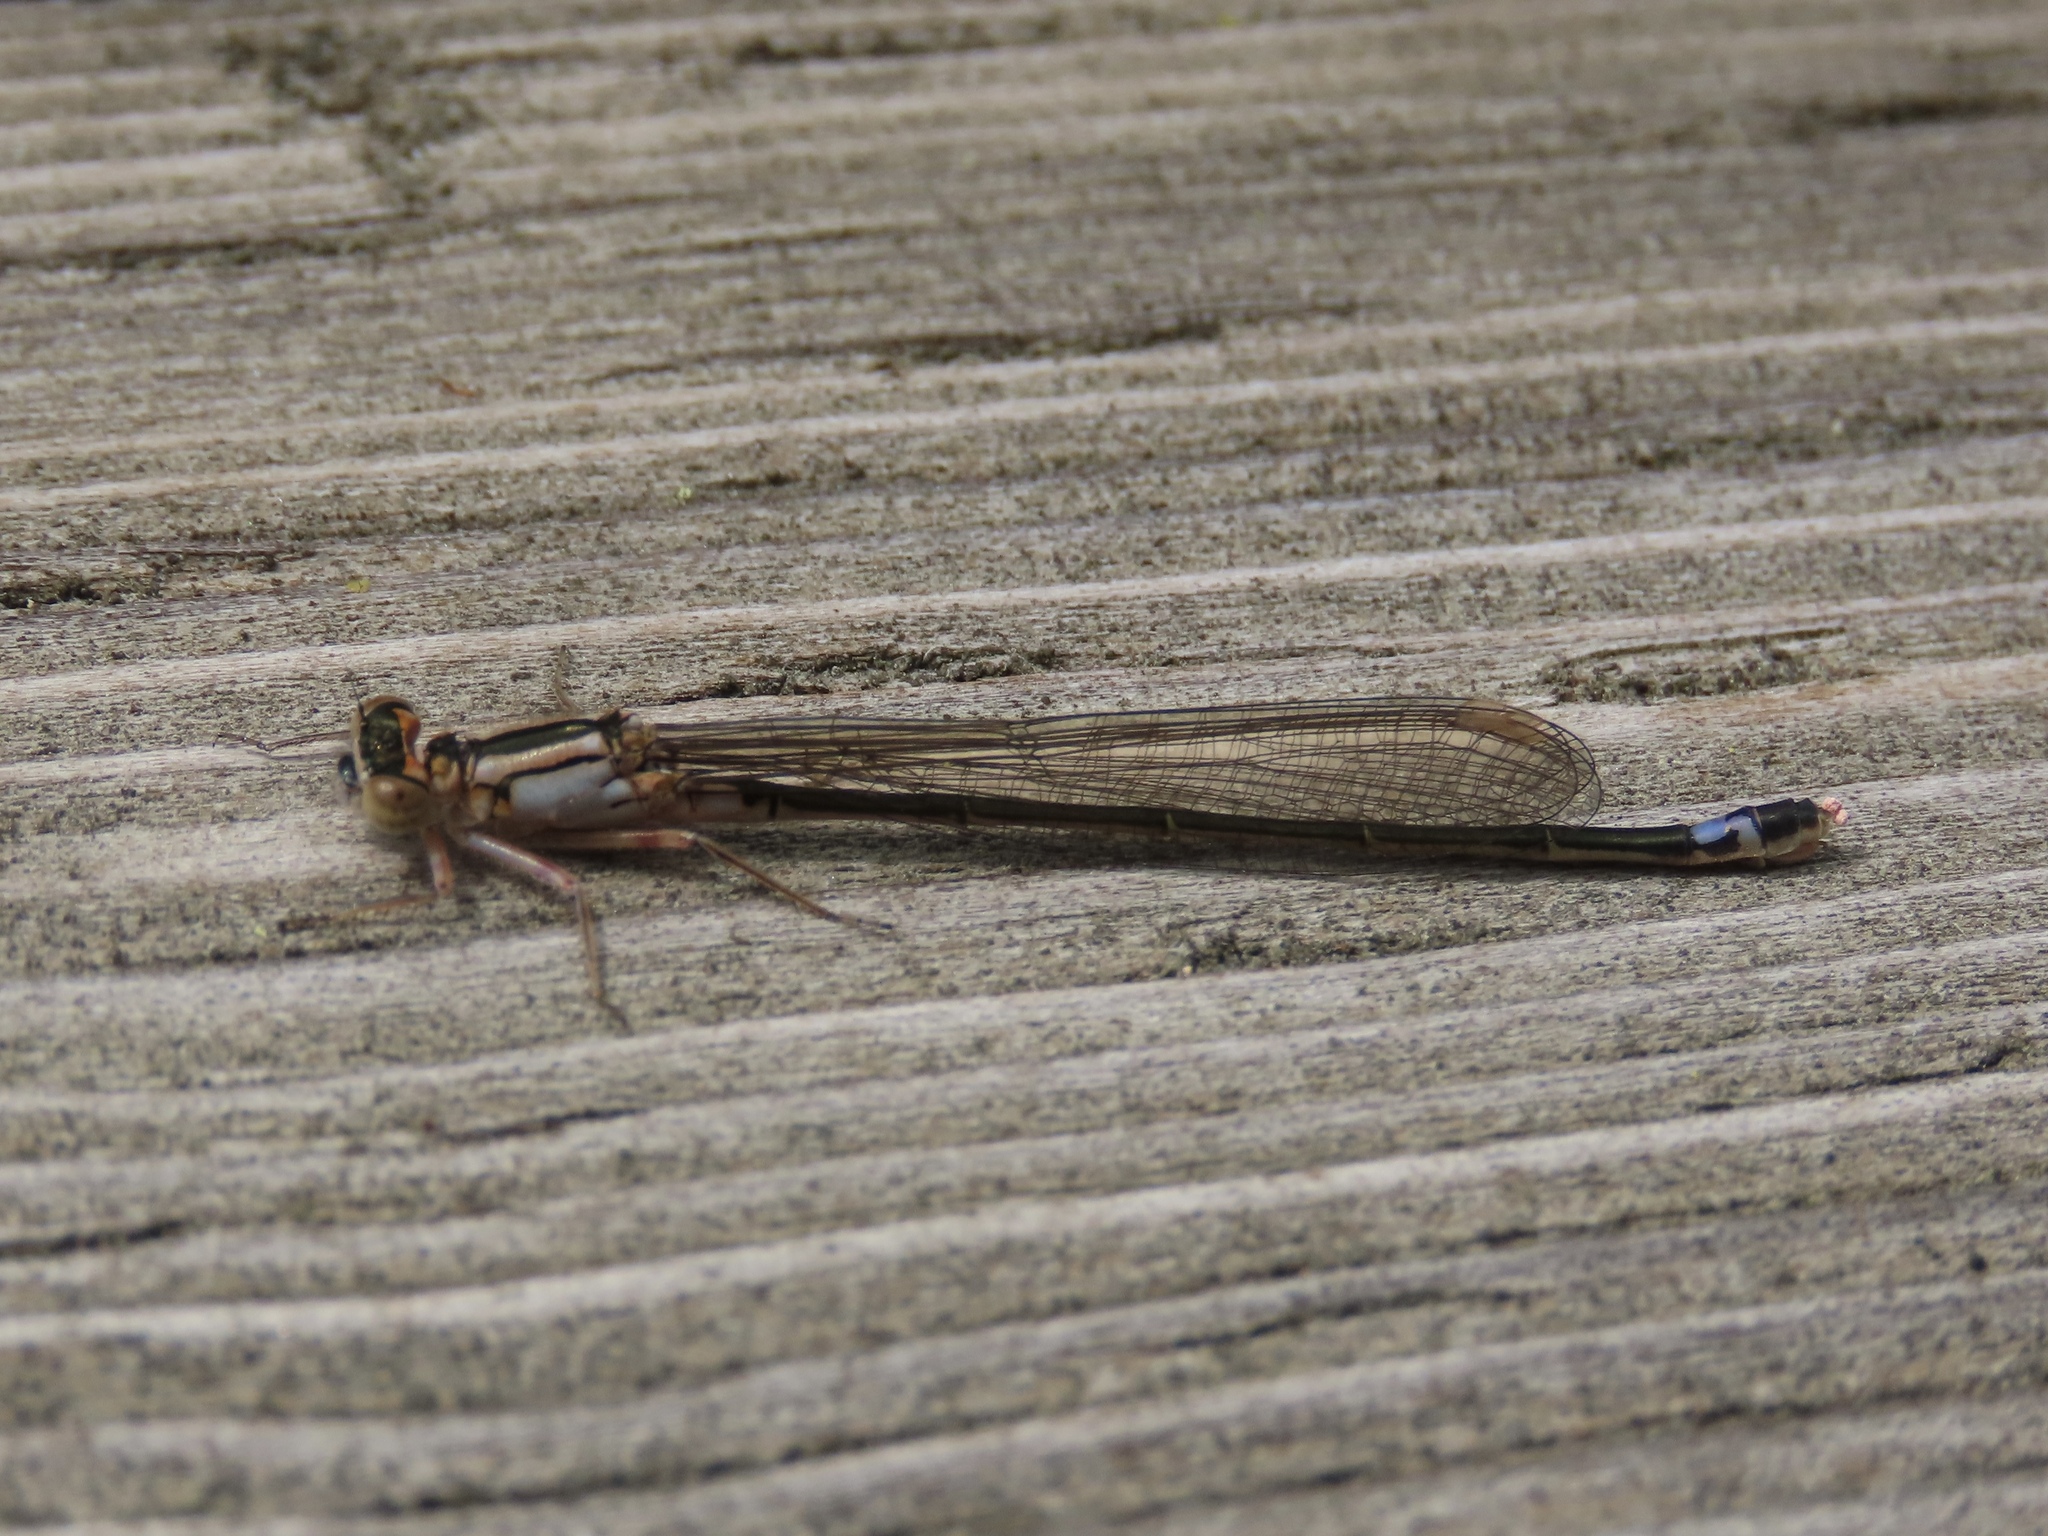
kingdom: Animalia
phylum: Arthropoda
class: Insecta
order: Odonata
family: Coenagrionidae
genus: Ischnura
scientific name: Ischnura cervula
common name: Pacific forktail
